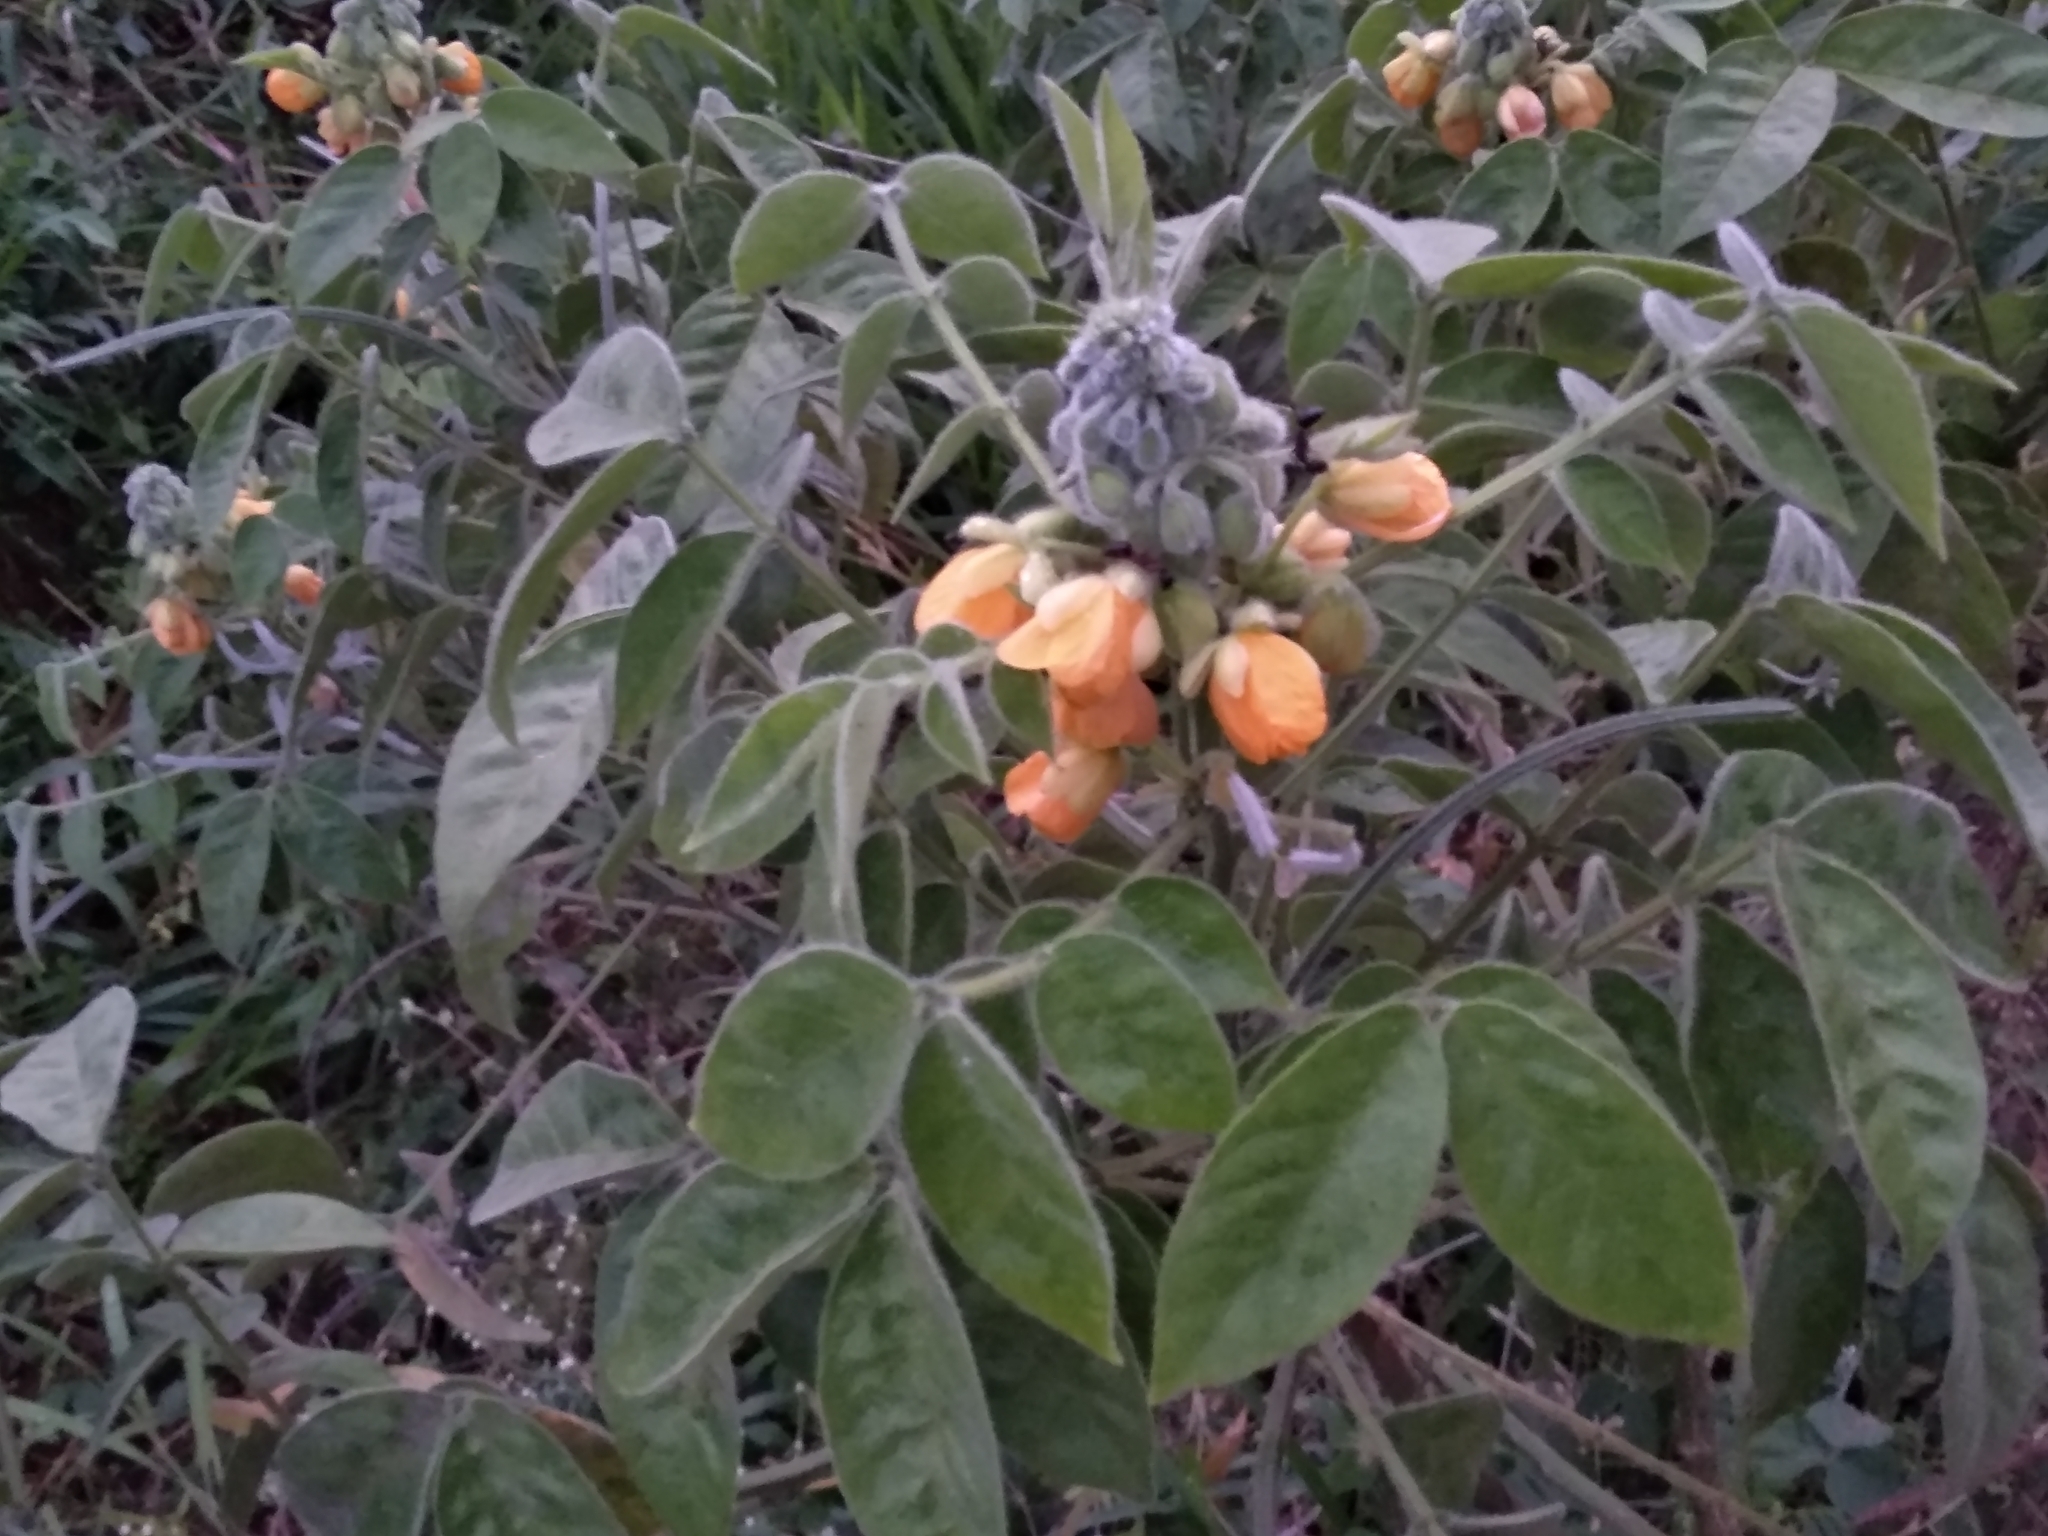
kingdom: Plantae
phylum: Tracheophyta
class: Magnoliopsida
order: Fabales
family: Fabaceae
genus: Senna
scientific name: Senna hirsuta
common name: Woolly senna
